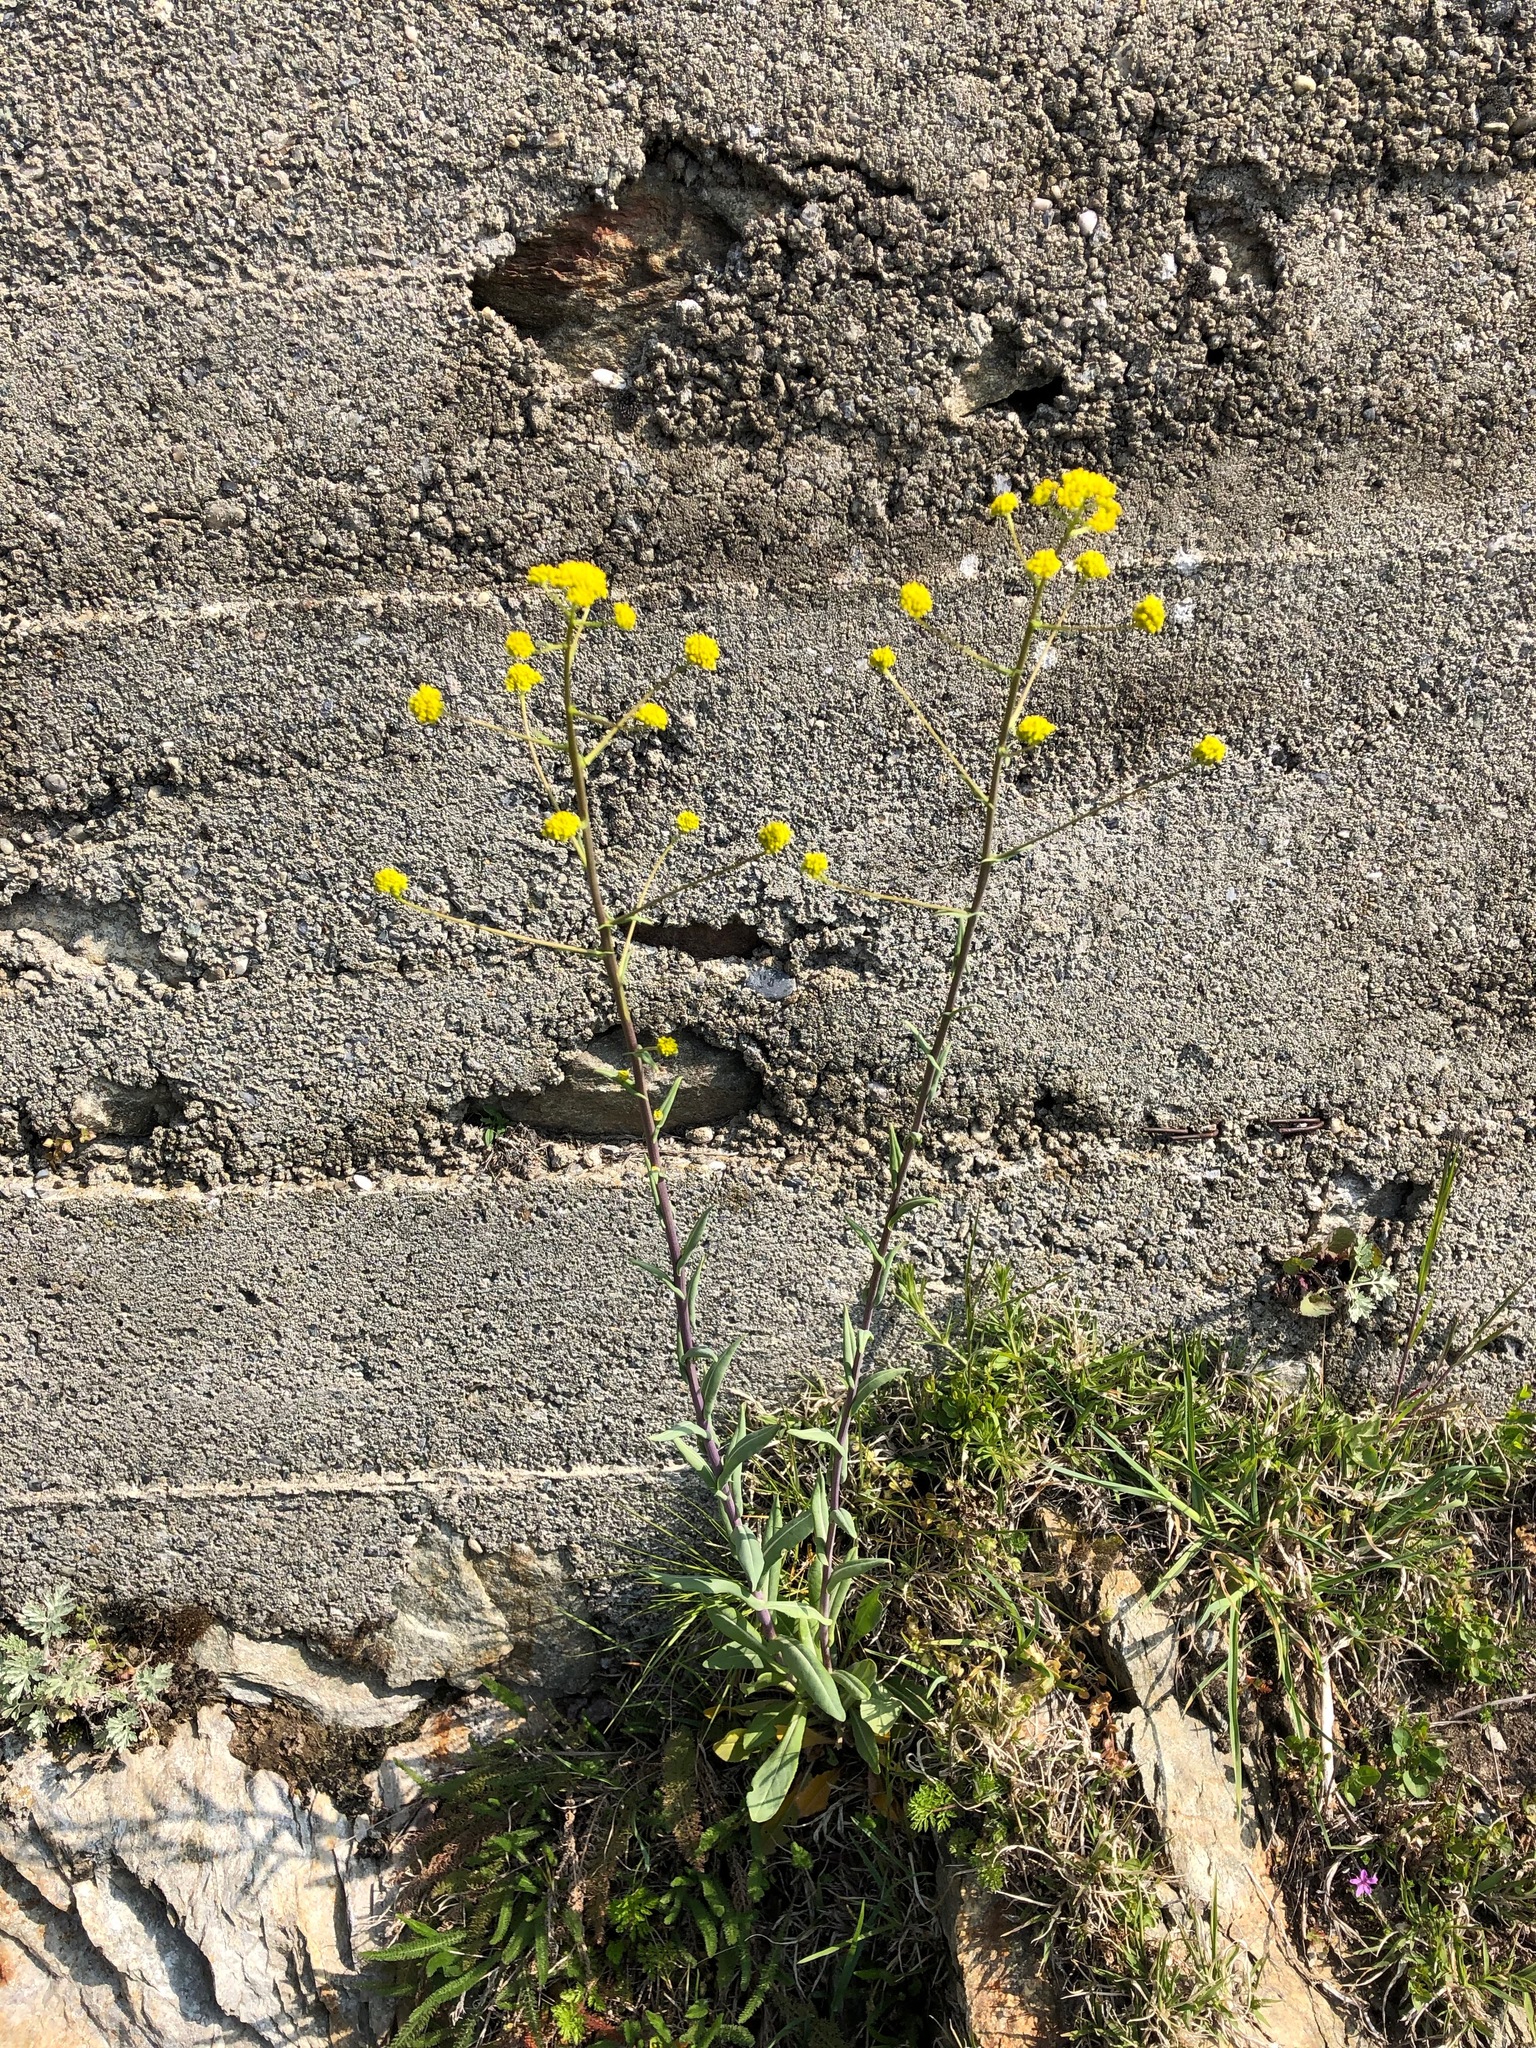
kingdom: Plantae
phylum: Tracheophyta
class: Magnoliopsida
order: Brassicales
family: Brassicaceae
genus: Isatis
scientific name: Isatis tinctoria
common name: Woad
